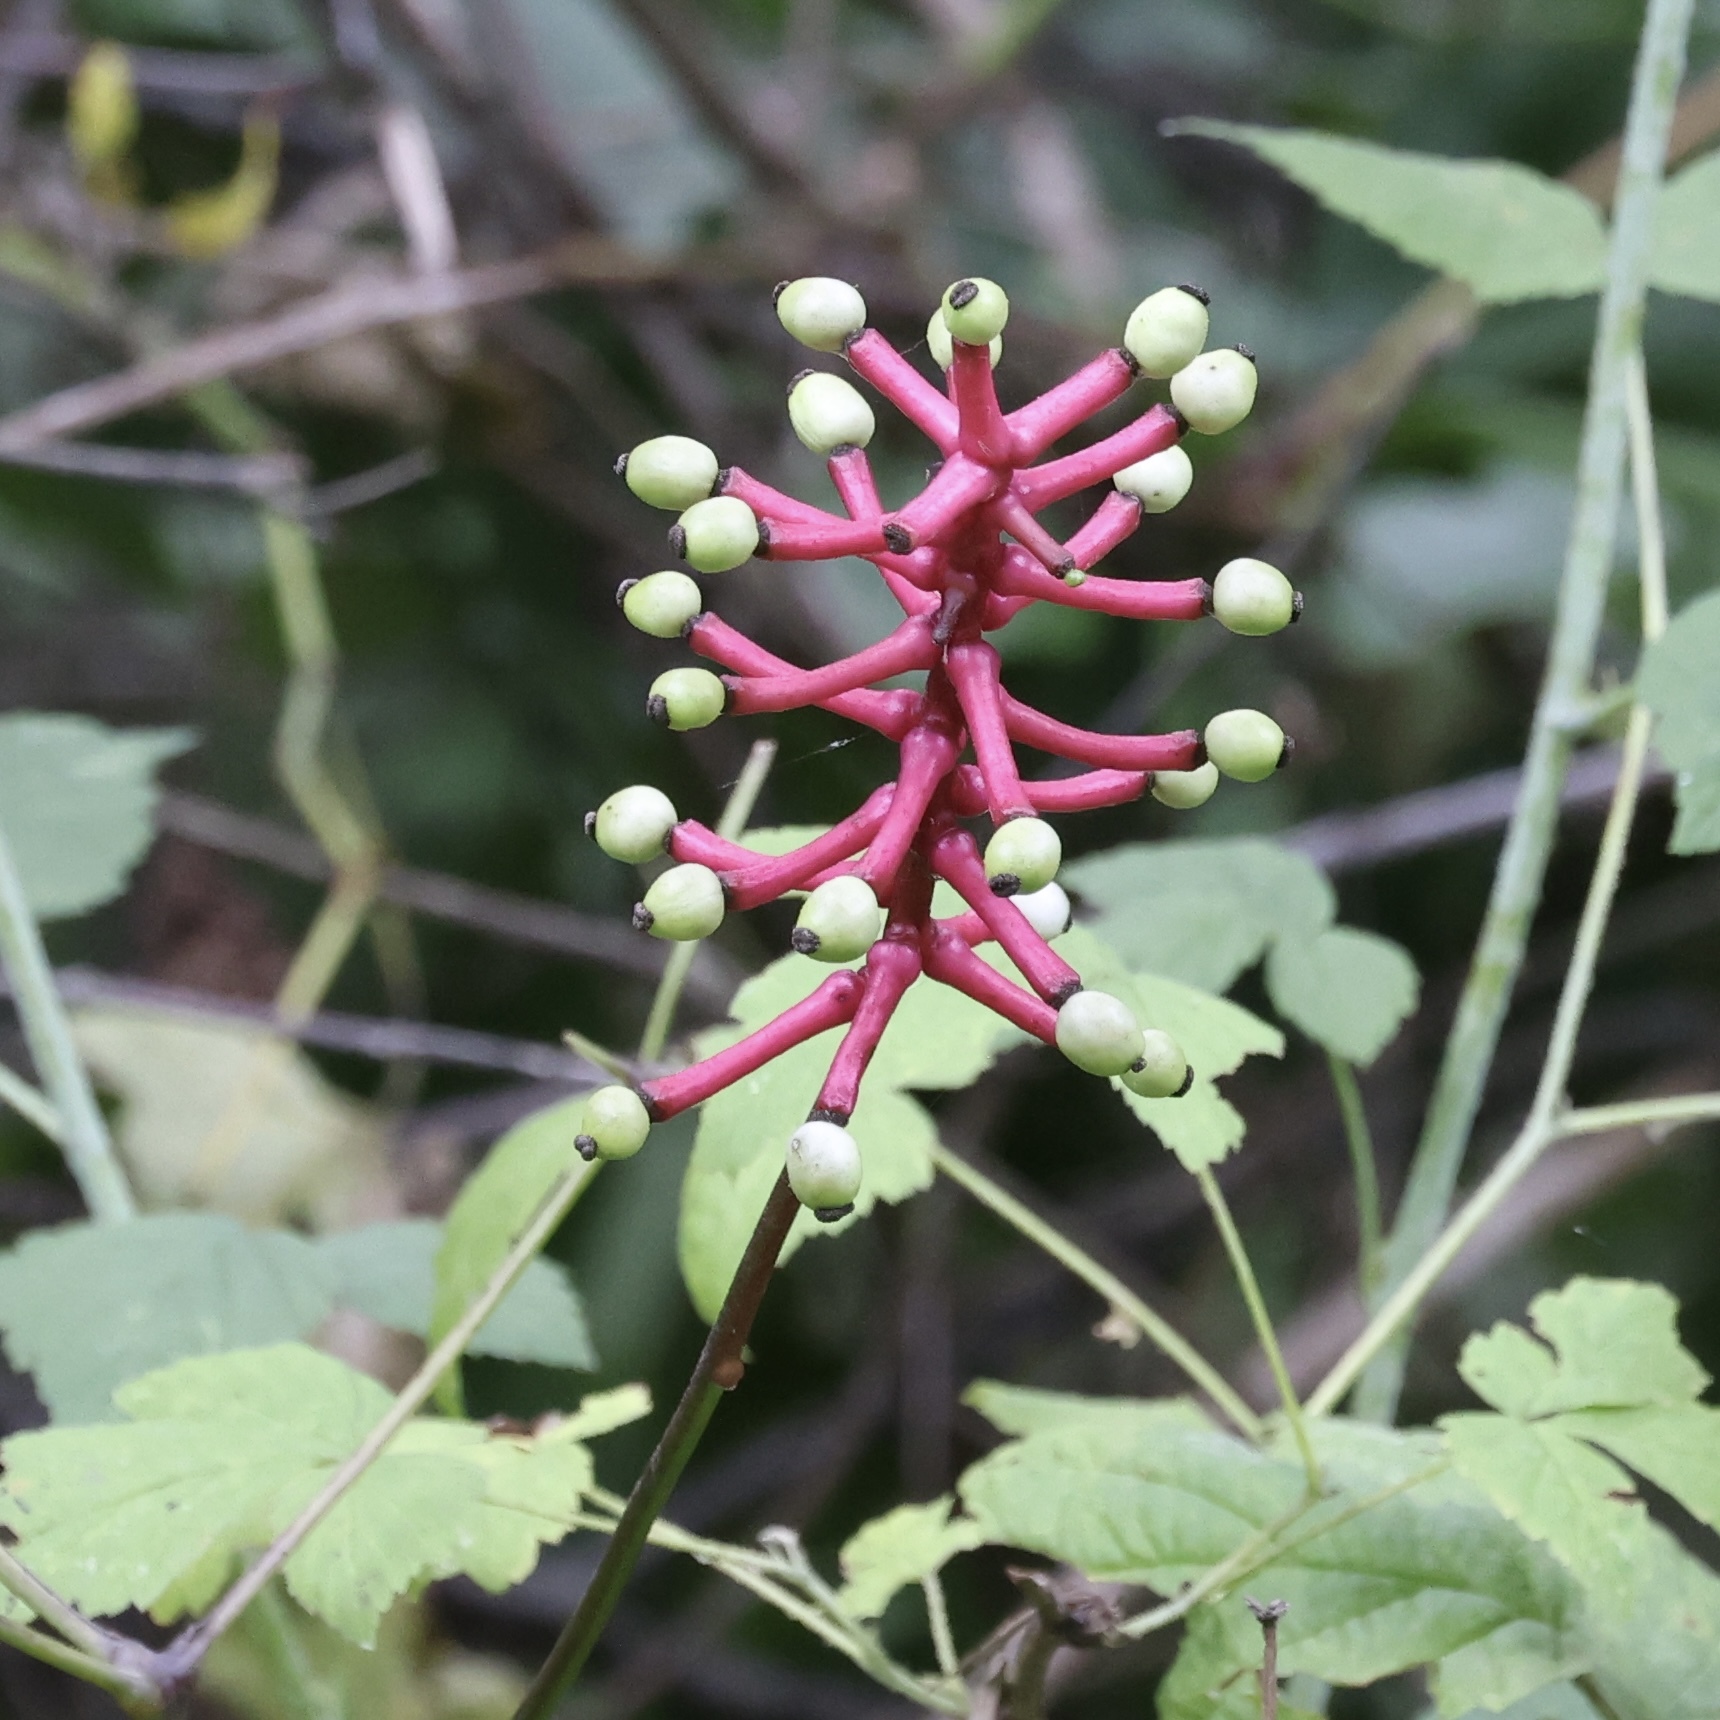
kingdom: Plantae
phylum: Tracheophyta
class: Magnoliopsida
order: Ranunculales
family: Ranunculaceae
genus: Actaea
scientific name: Actaea pachypoda
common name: Doll's-eyes
